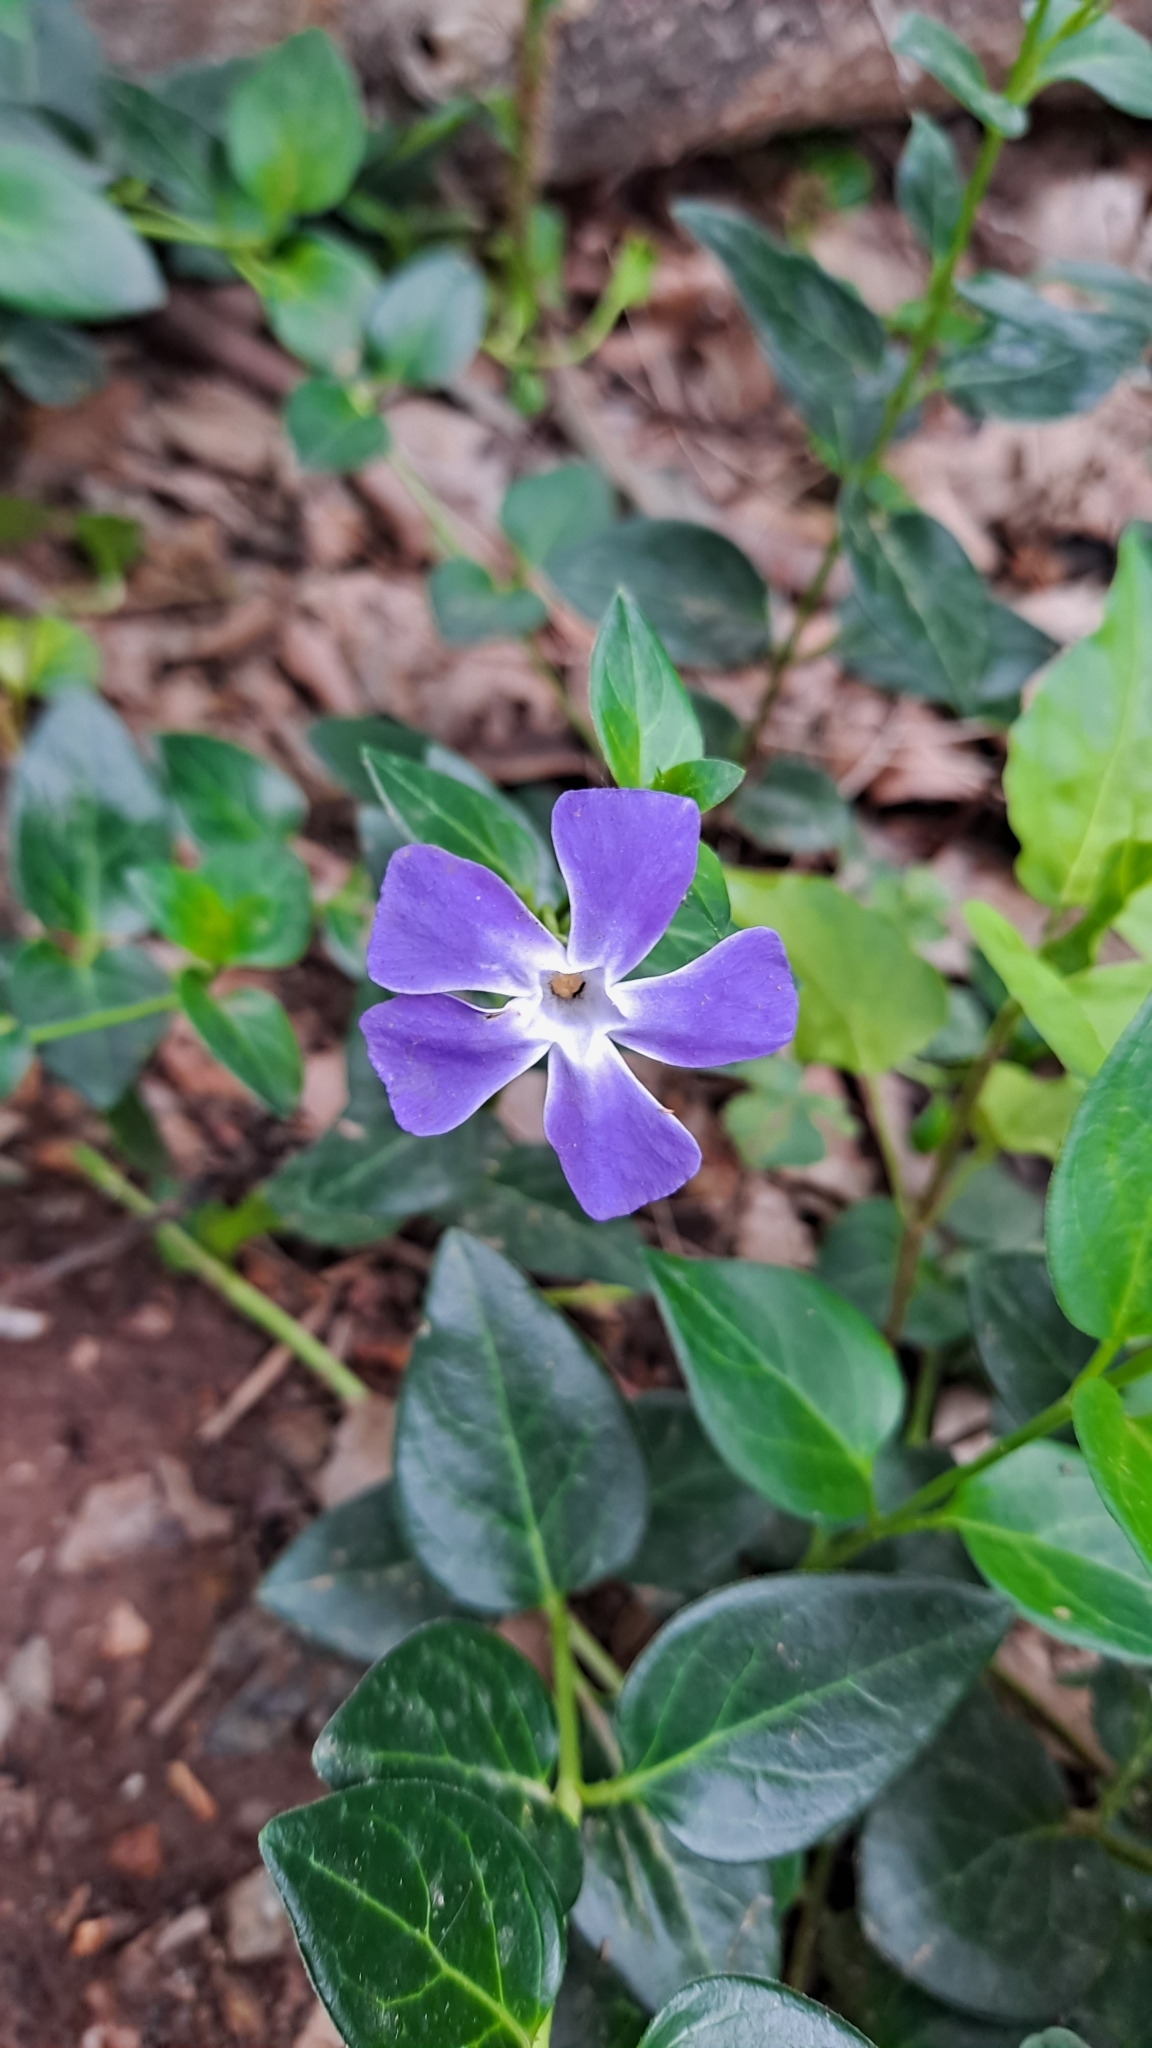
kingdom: Plantae
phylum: Tracheophyta
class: Magnoliopsida
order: Gentianales
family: Apocynaceae
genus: Vinca
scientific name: Vinca major
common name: Greater periwinkle
